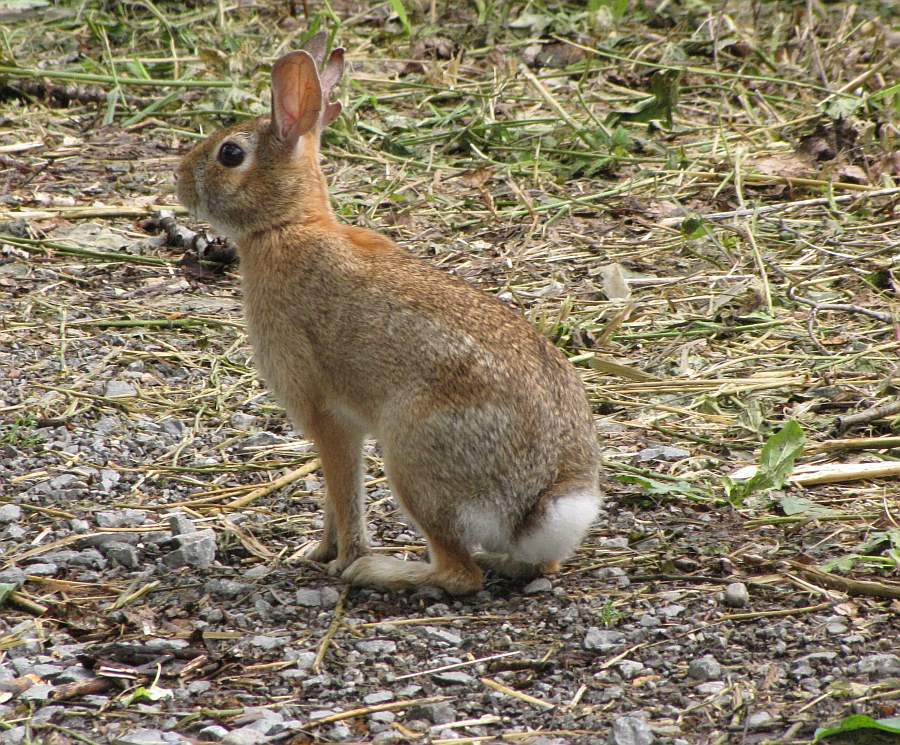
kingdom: Animalia
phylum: Chordata
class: Mammalia
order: Lagomorpha
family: Leporidae
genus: Sylvilagus
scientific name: Sylvilagus floridanus
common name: Eastern cottontail
